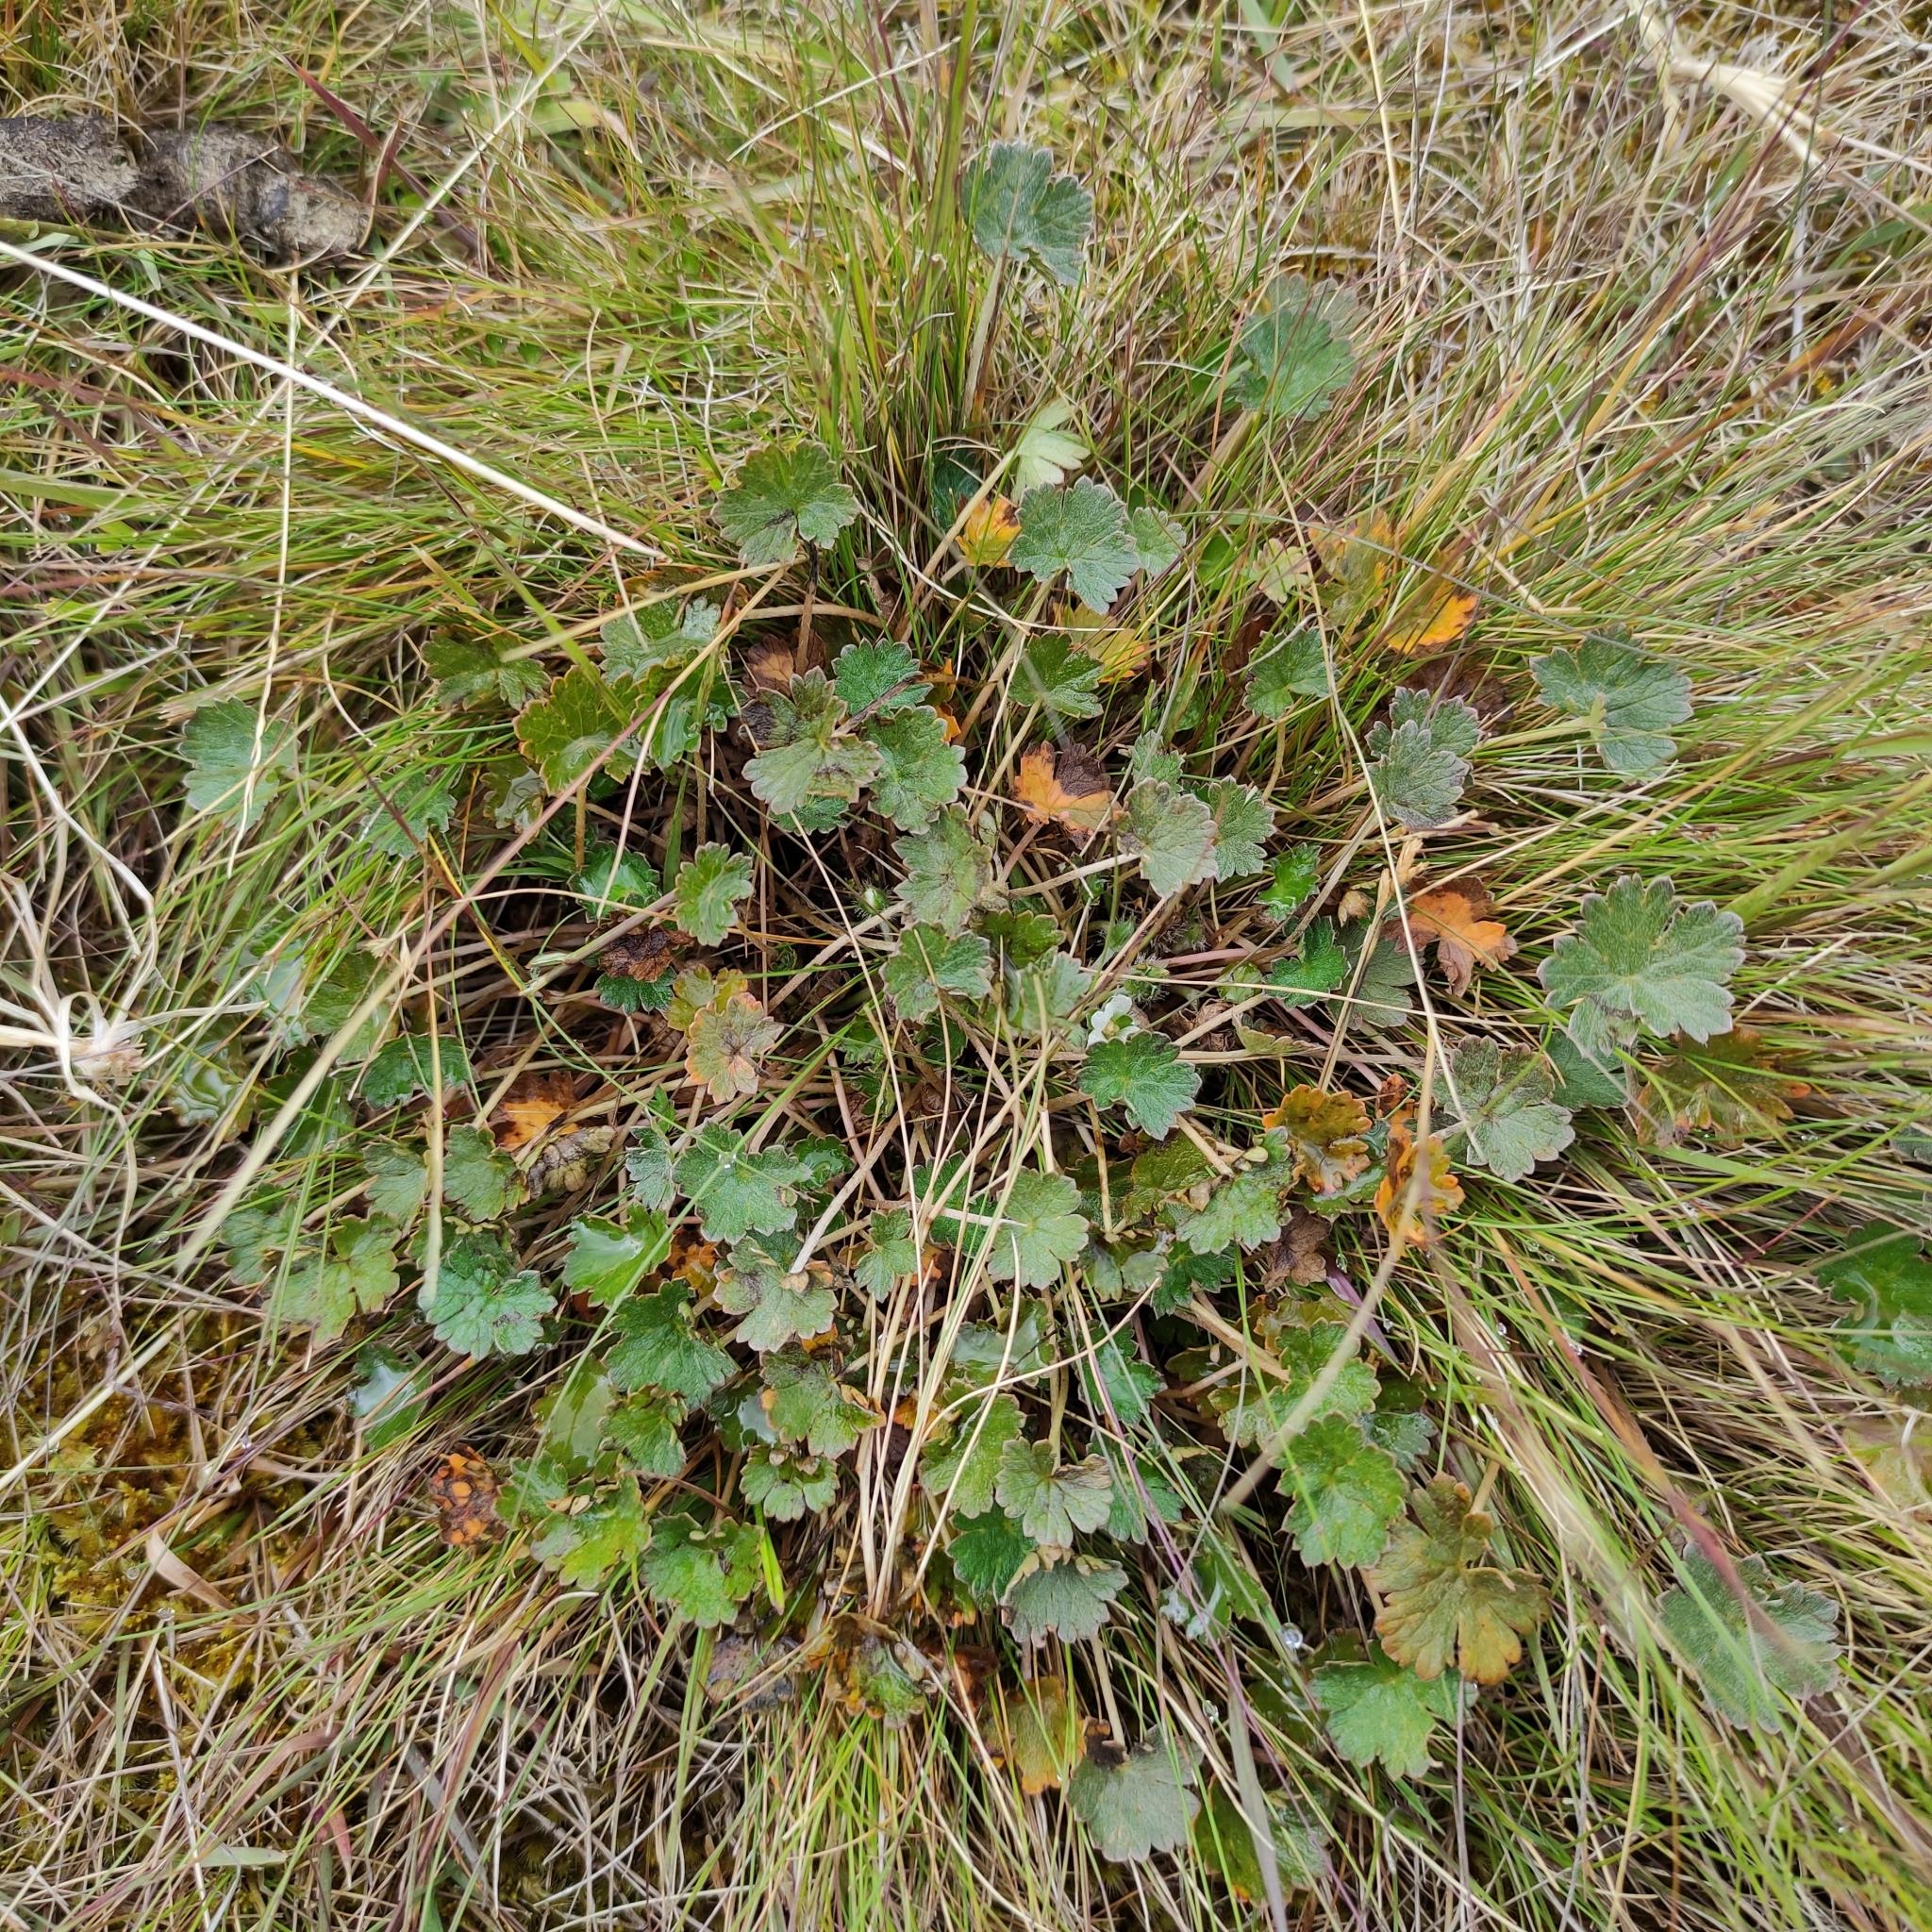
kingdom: Plantae
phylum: Tracheophyta
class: Magnoliopsida
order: Geraniales
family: Geraniaceae
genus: Geranium
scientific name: Geranium brevicaule
